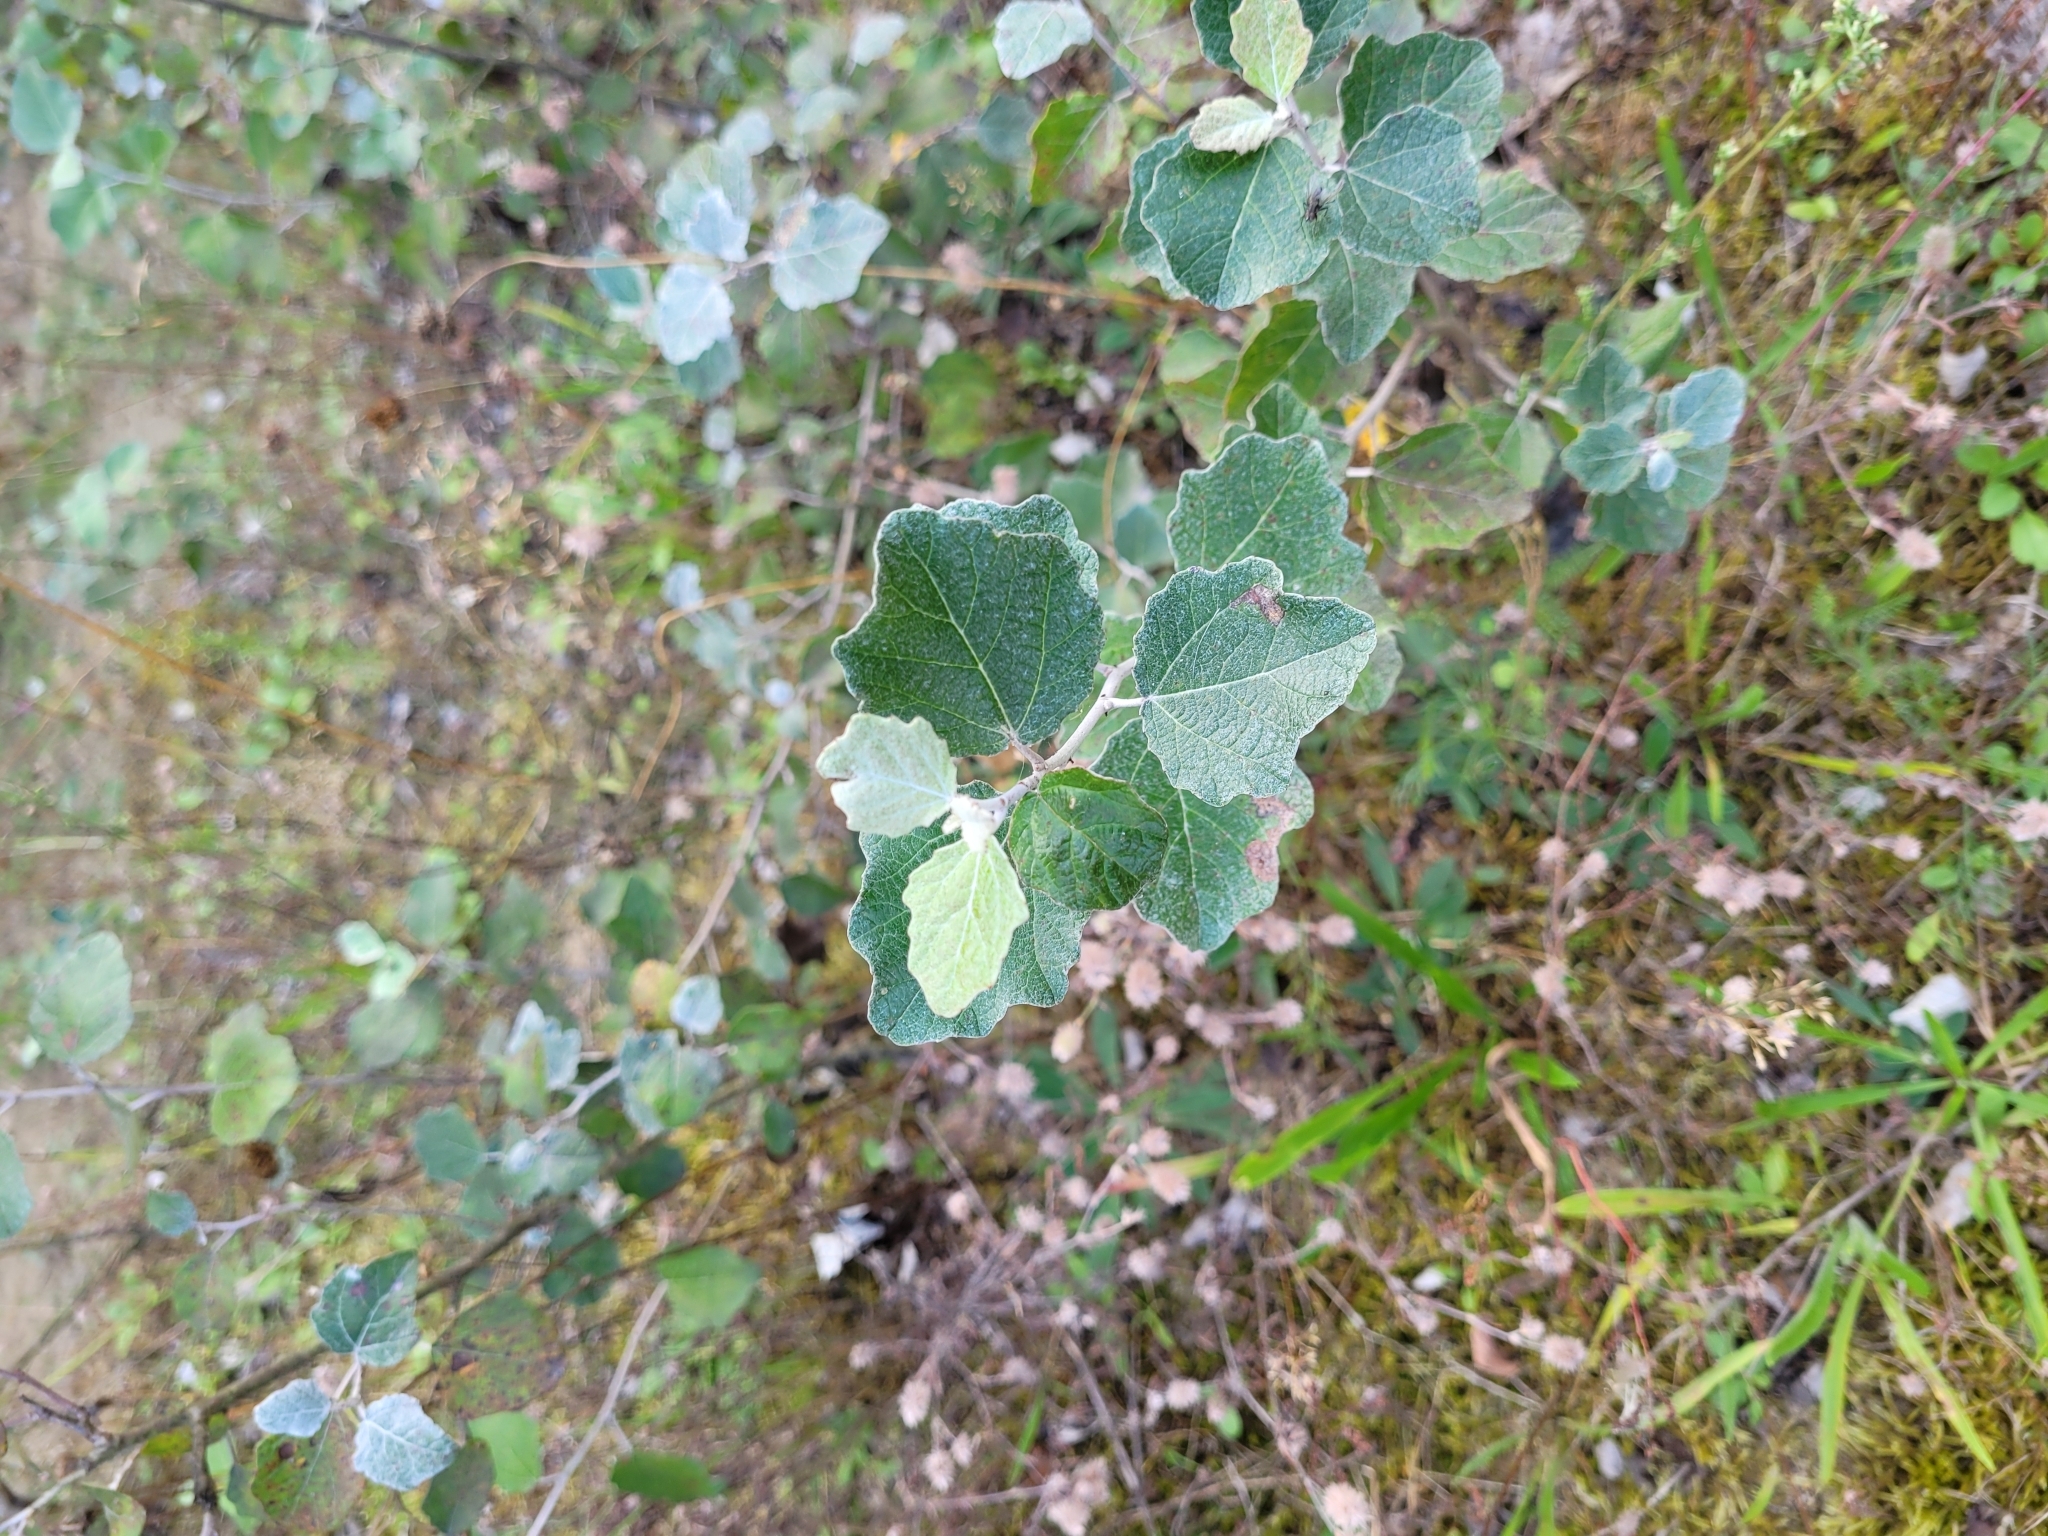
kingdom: Plantae
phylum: Tracheophyta
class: Magnoliopsida
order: Malpighiales
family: Salicaceae
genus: Populus
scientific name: Populus alba
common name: White poplar
